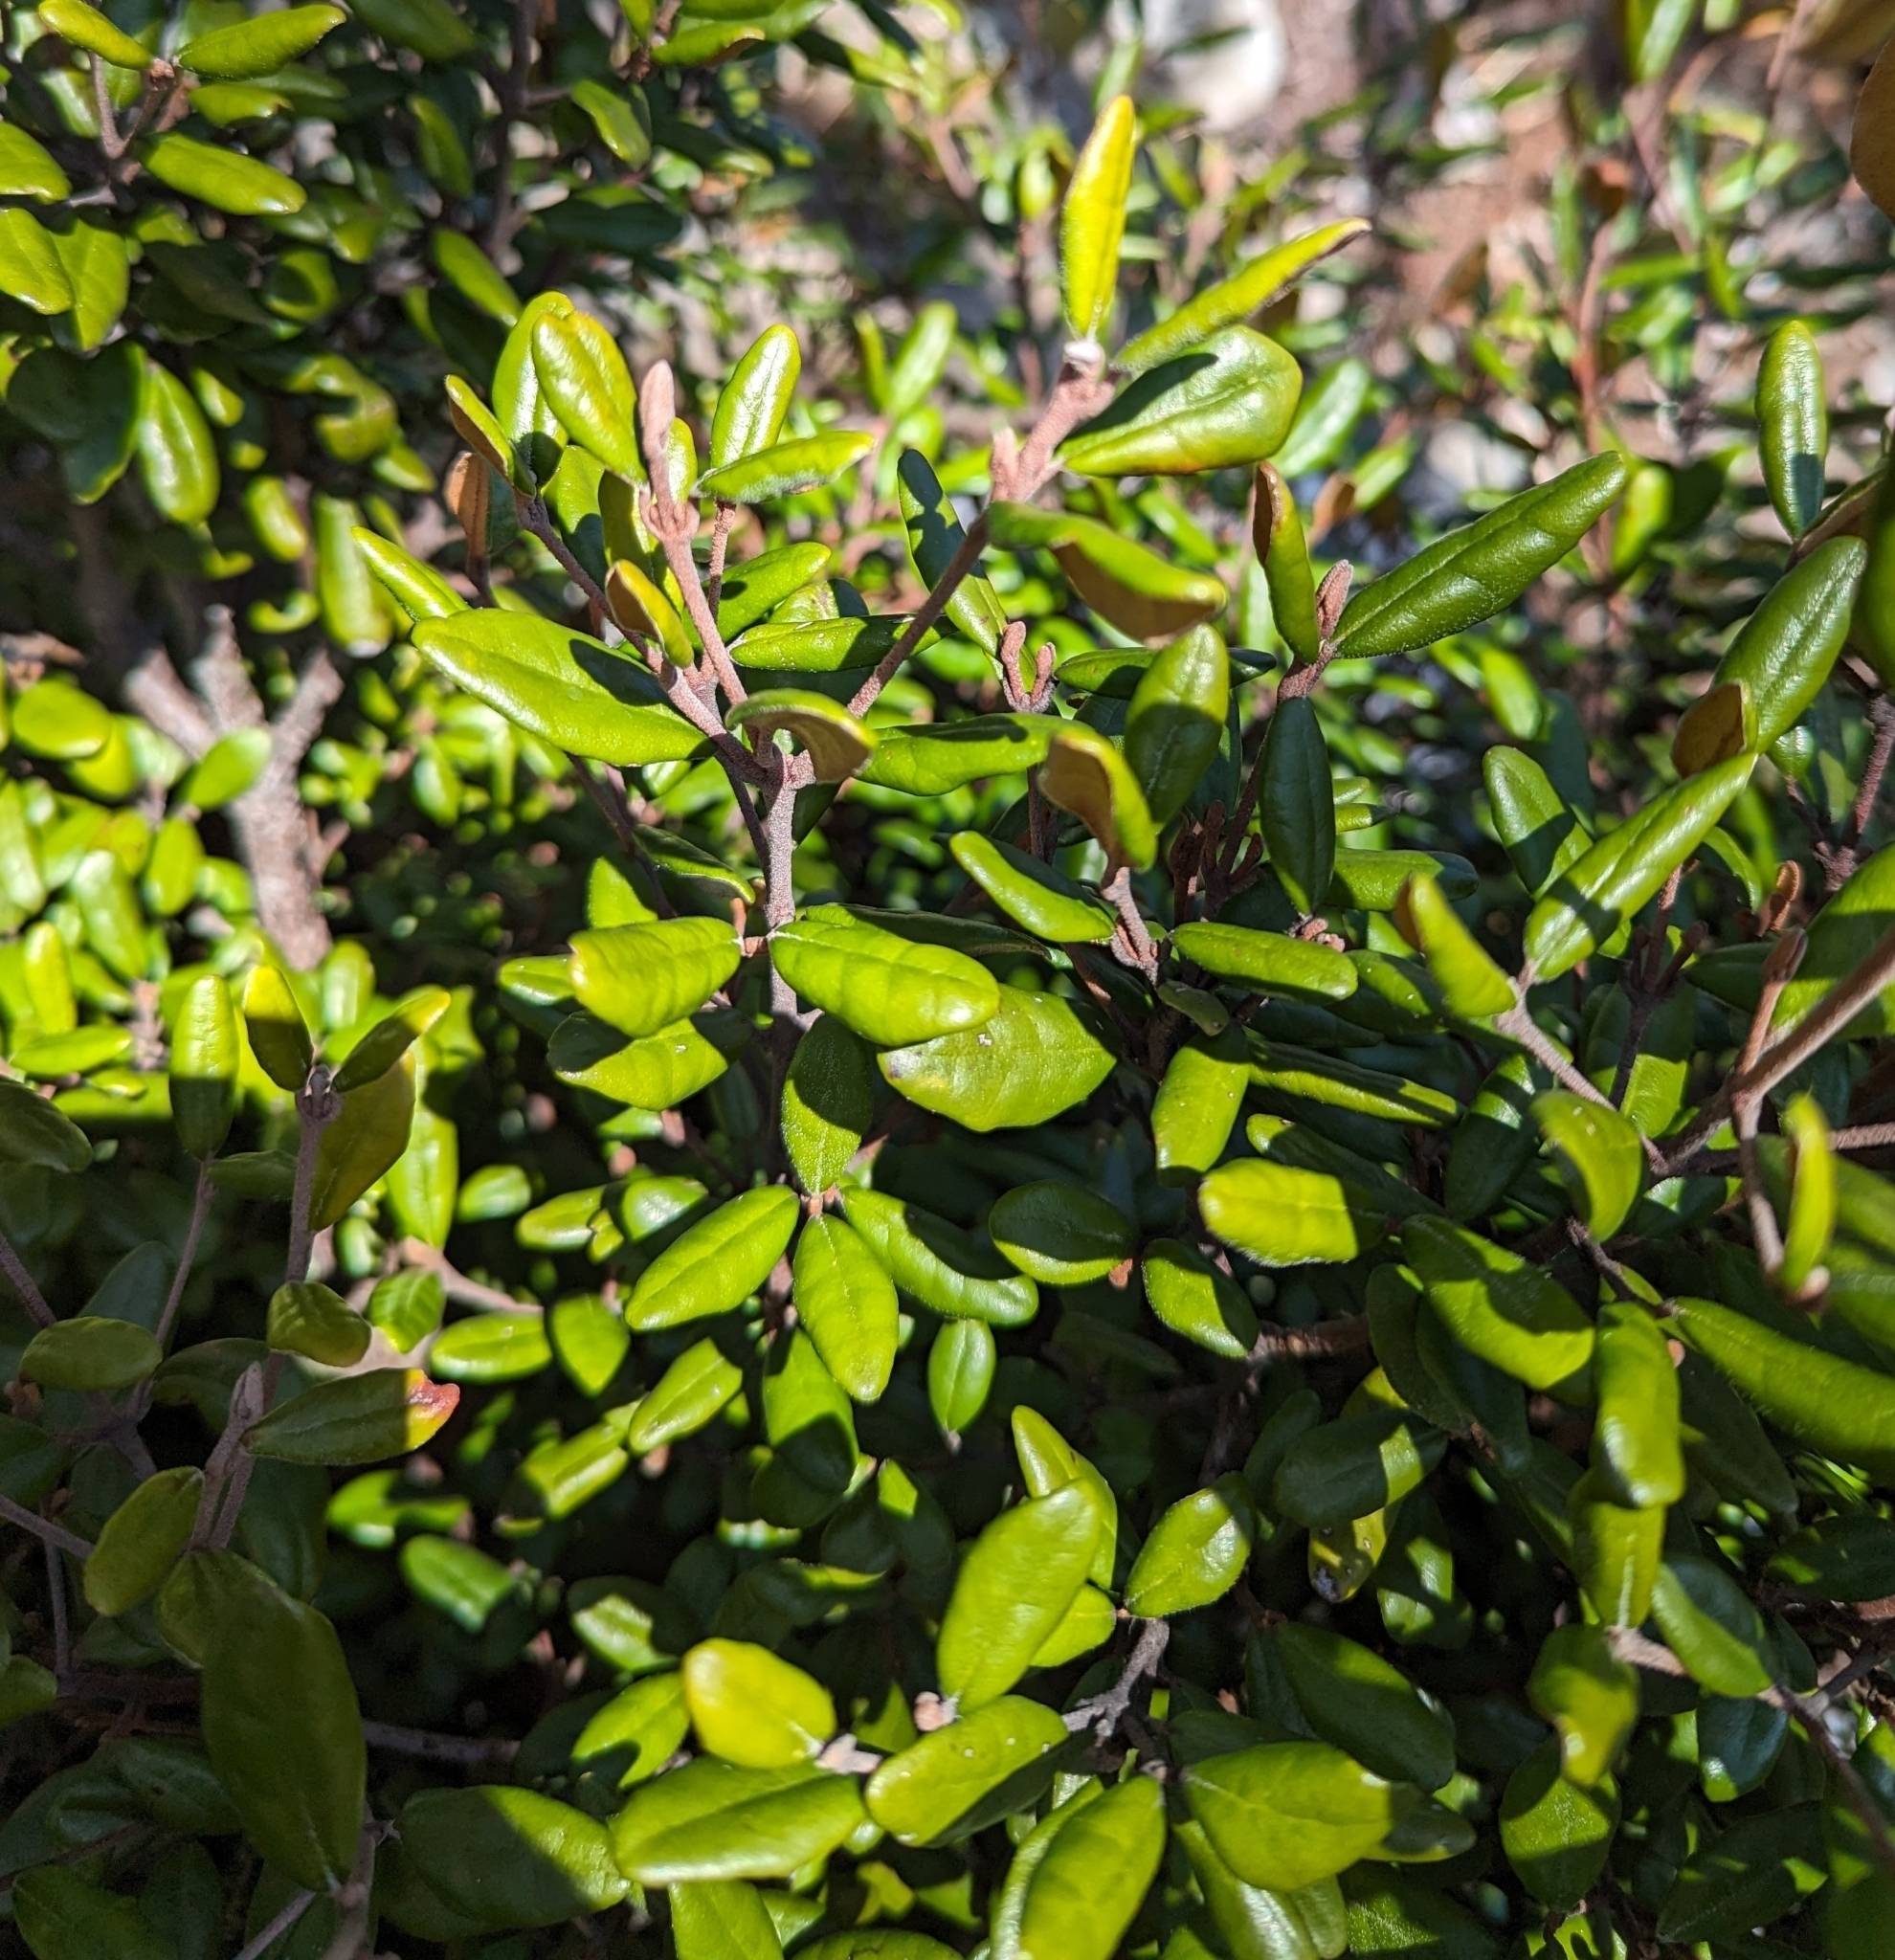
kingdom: Plantae
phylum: Tracheophyta
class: Magnoliopsida
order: Sapindales
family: Rutaceae
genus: Correa
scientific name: Correa lawrenceana
